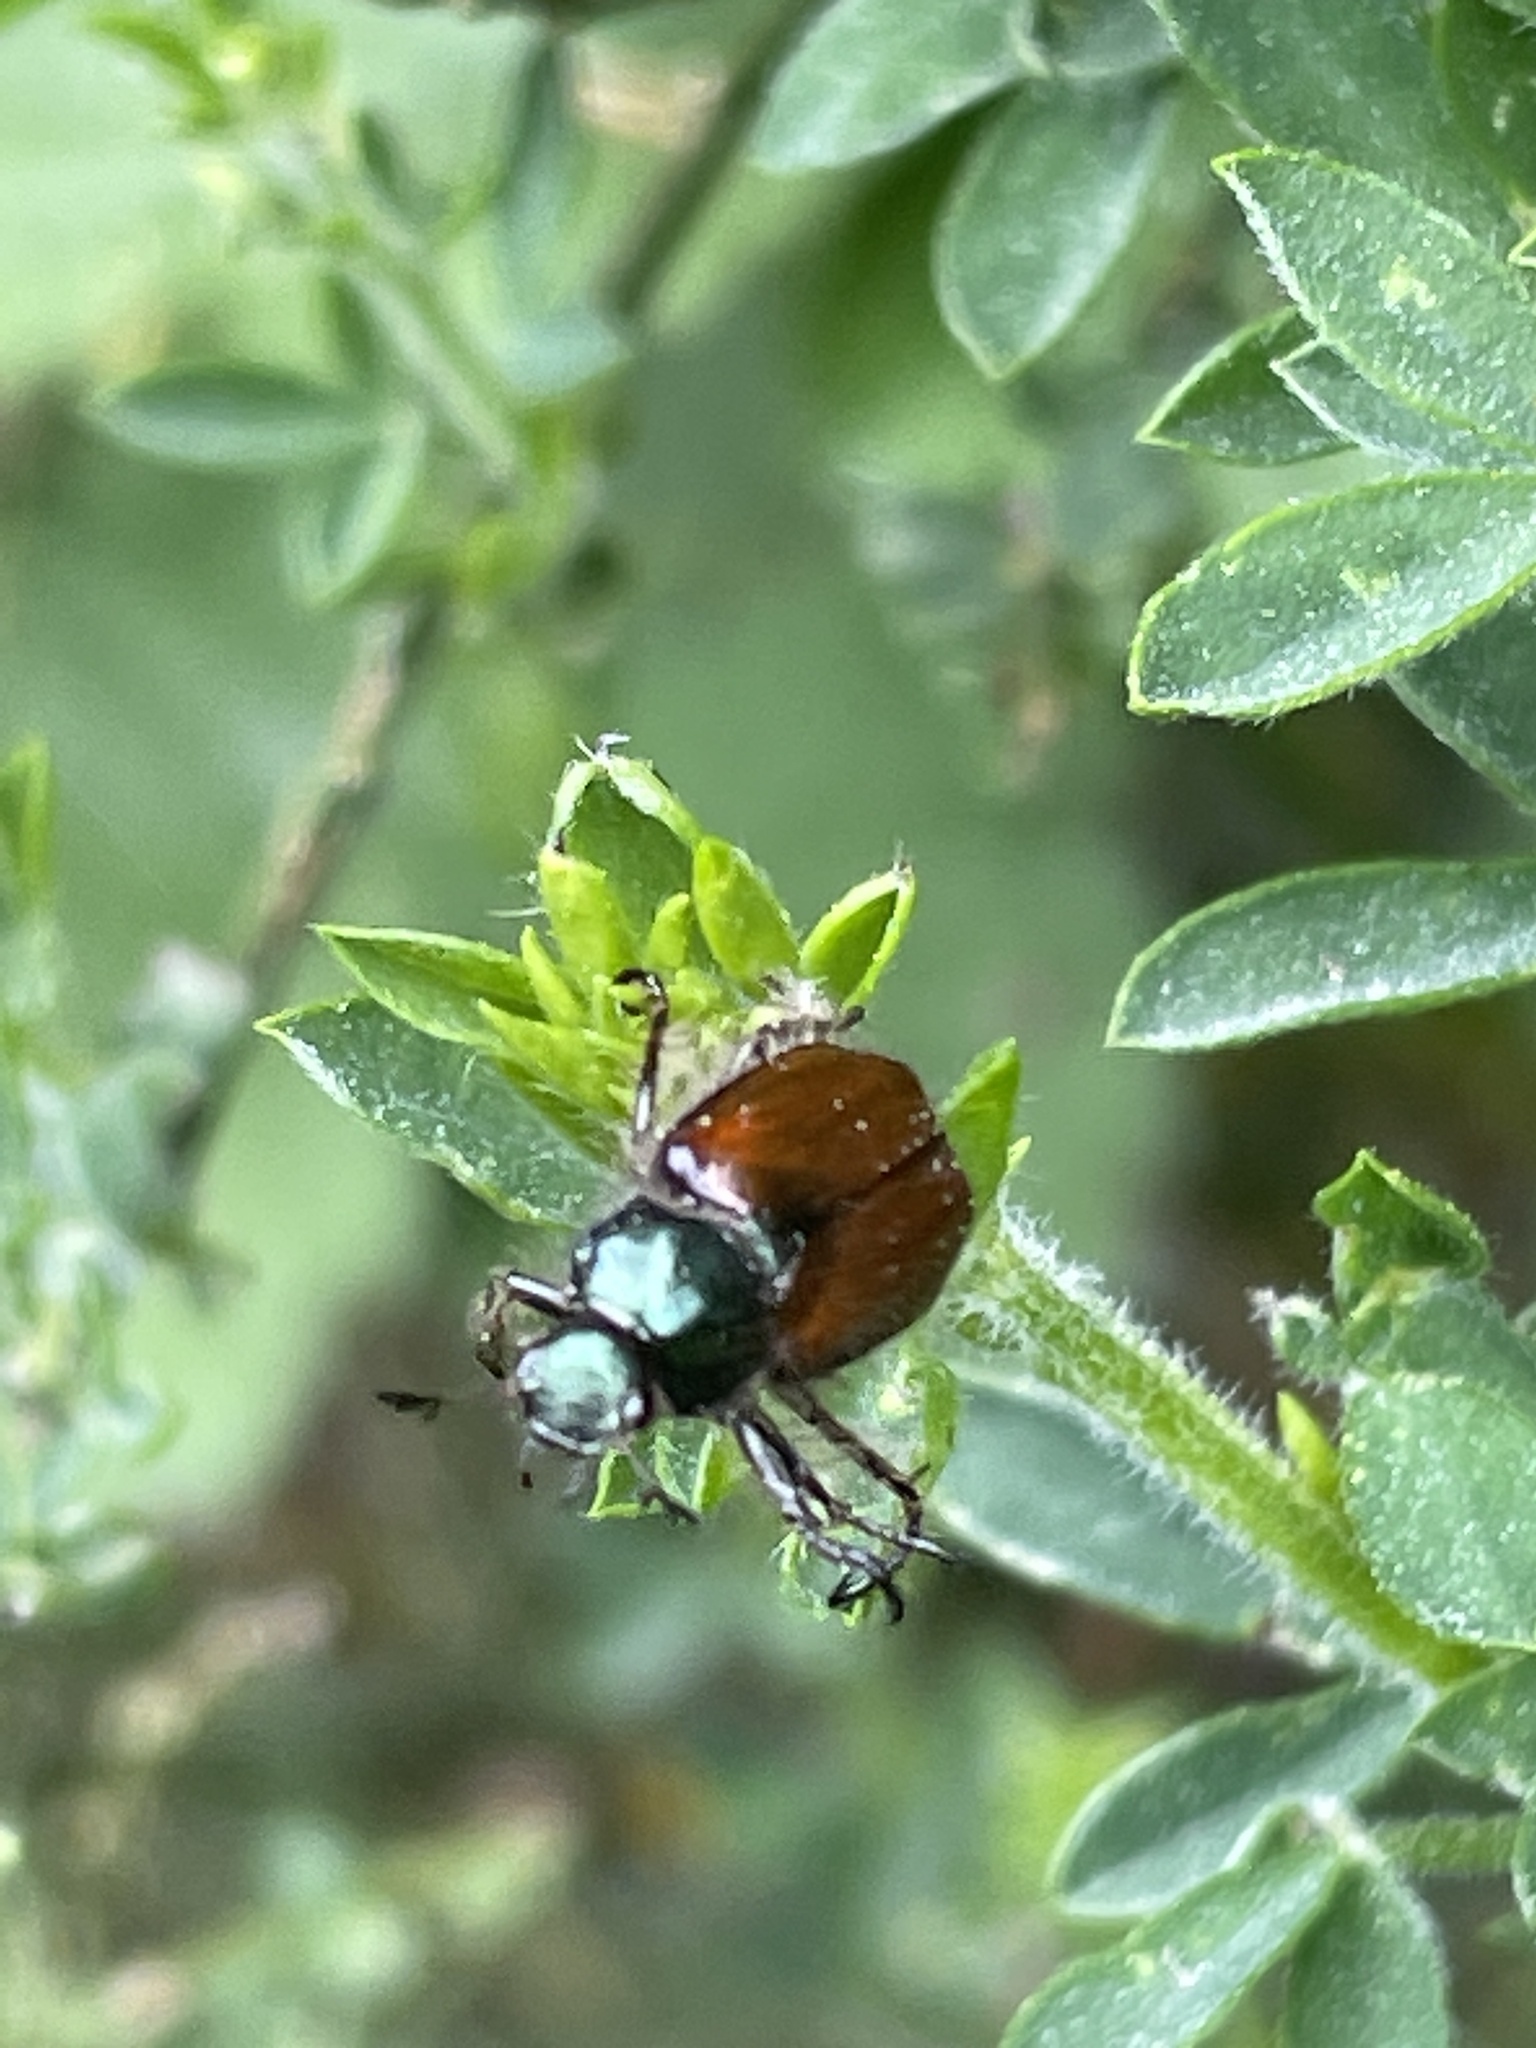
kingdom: Animalia
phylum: Arthropoda
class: Insecta
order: Coleoptera
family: Scarabaeidae
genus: Phyllopertha
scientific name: Phyllopertha horticola
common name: Garden chafer
